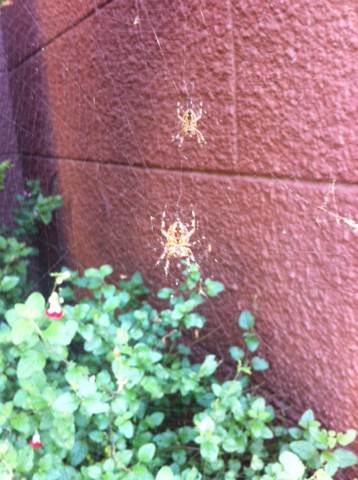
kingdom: Animalia
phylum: Arthropoda
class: Arachnida
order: Araneae
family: Araneidae
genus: Araneus
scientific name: Araneus diadematus
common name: Cross orbweaver
